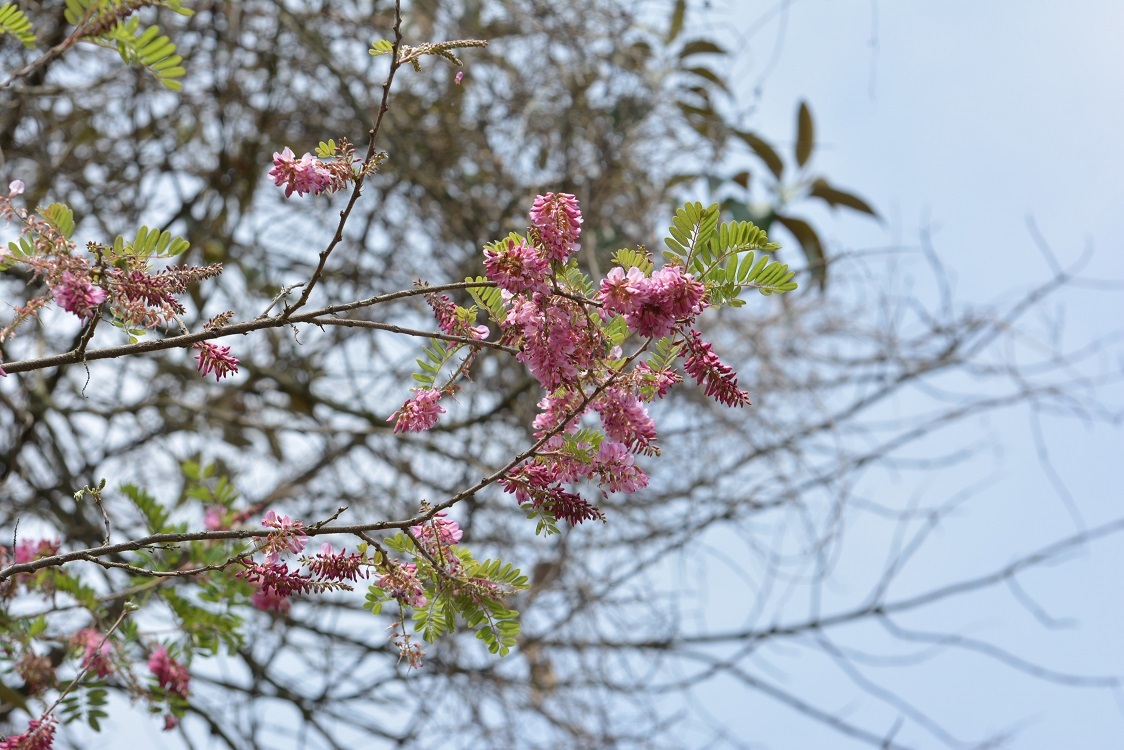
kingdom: Plantae
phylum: Tracheophyta
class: Magnoliopsida
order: Fabales
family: Fabaceae
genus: Gliricidia
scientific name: Gliricidia ehrenbergii
